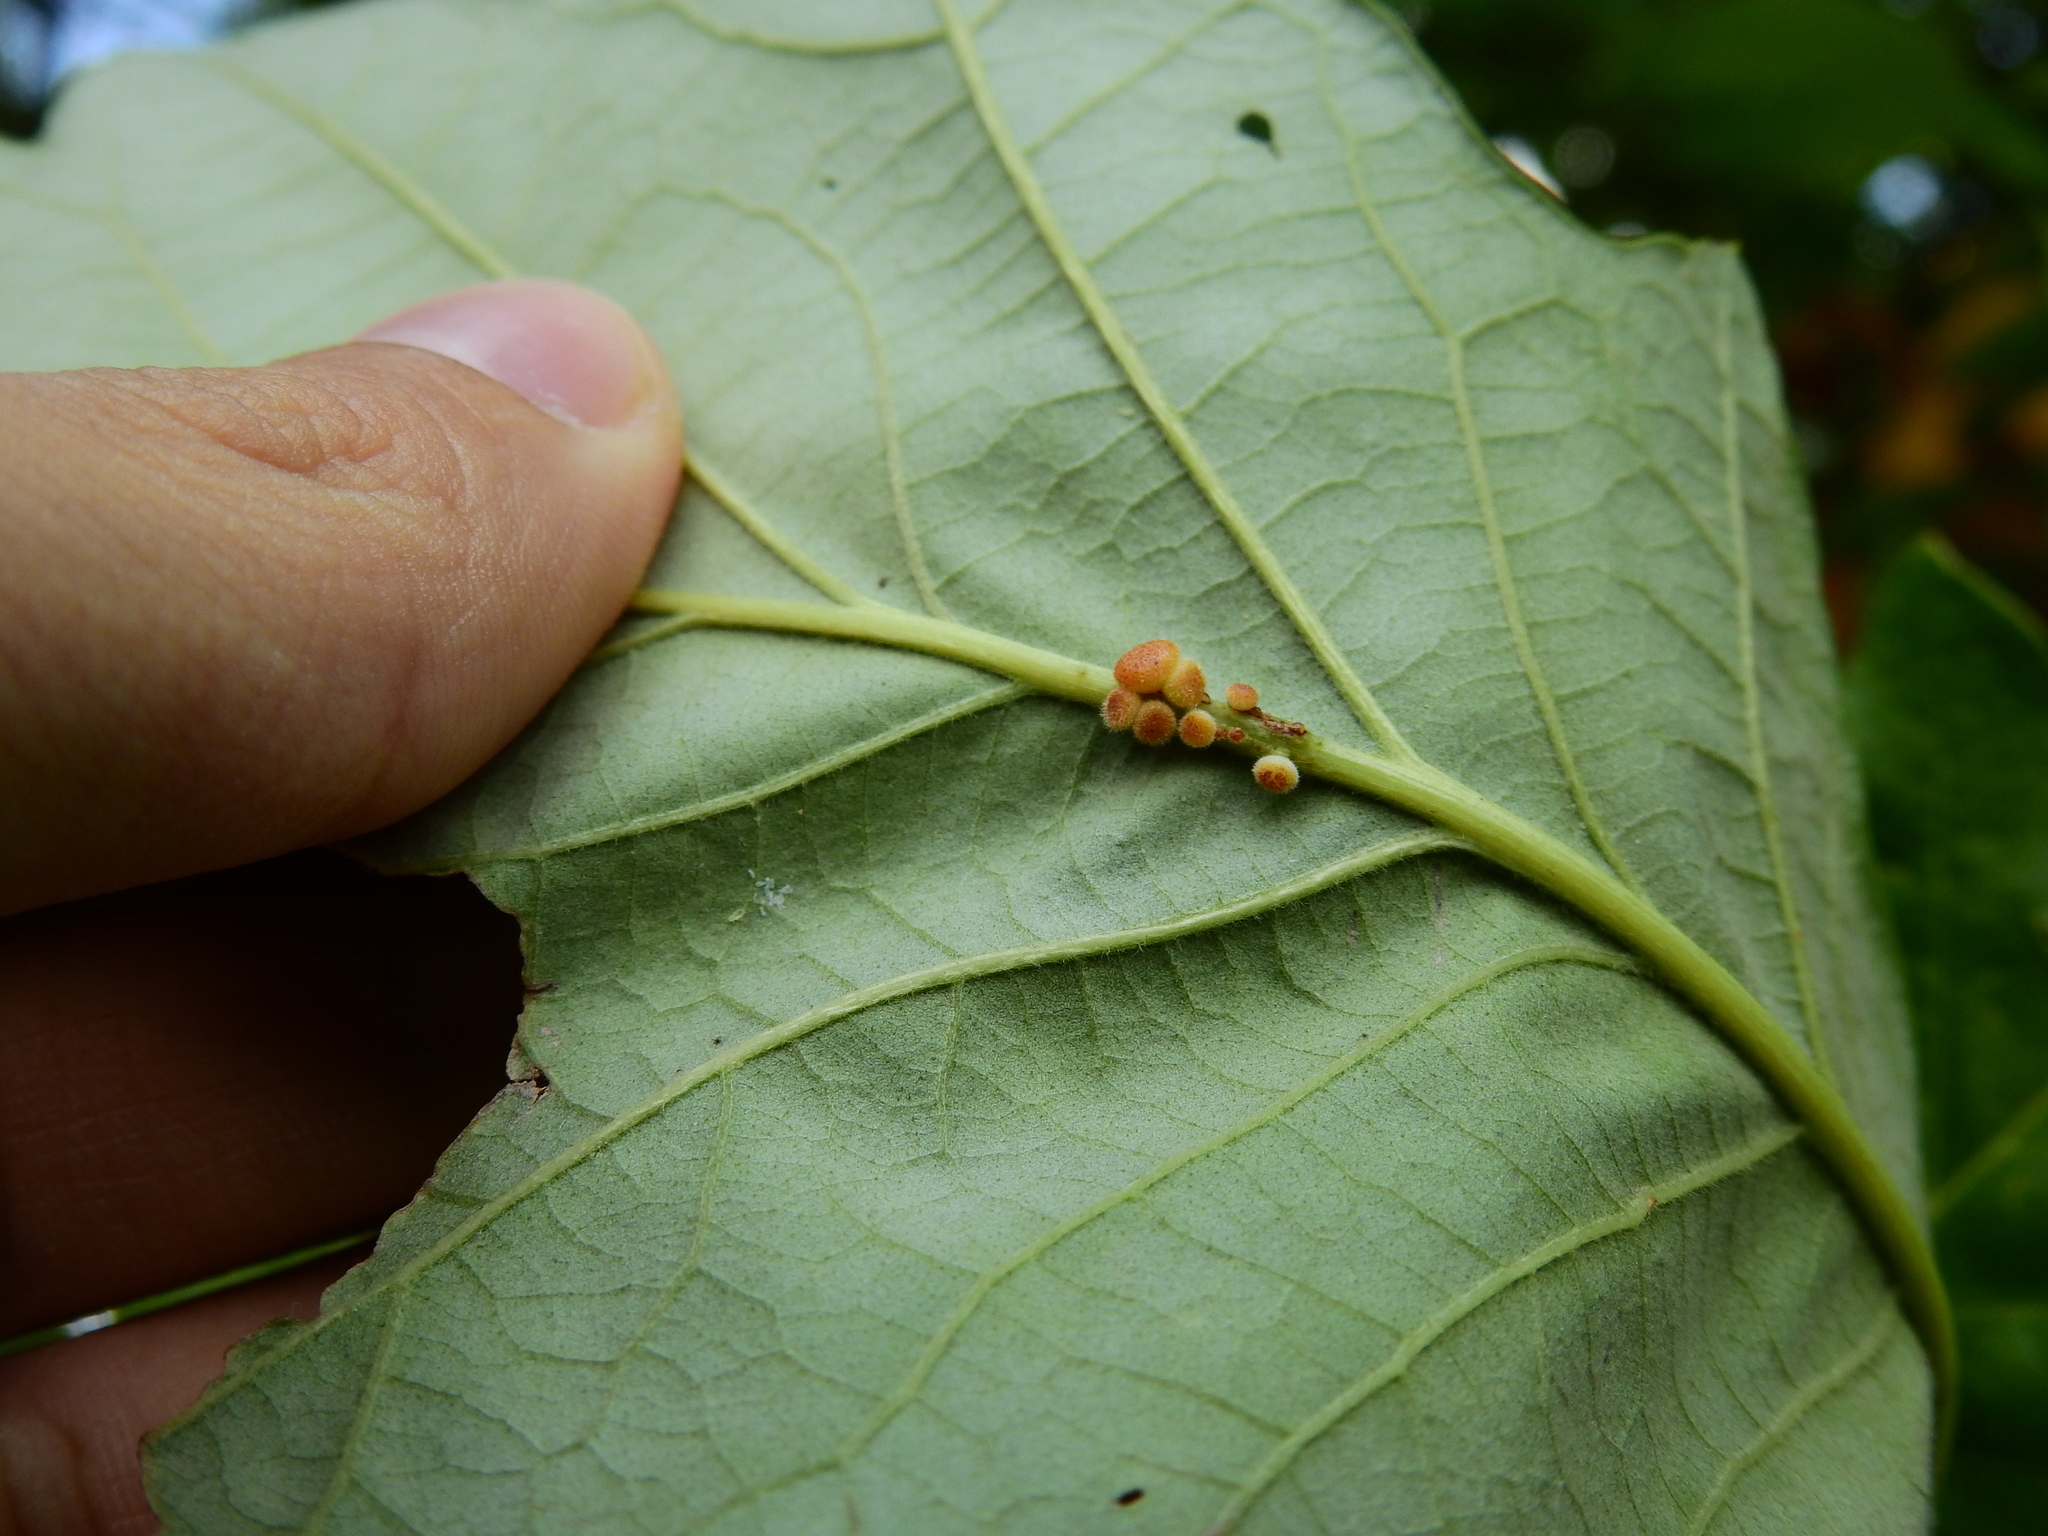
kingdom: Animalia
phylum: Arthropoda
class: Insecta
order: Hymenoptera
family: Cynipidae
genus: Andricus
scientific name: Andricus
